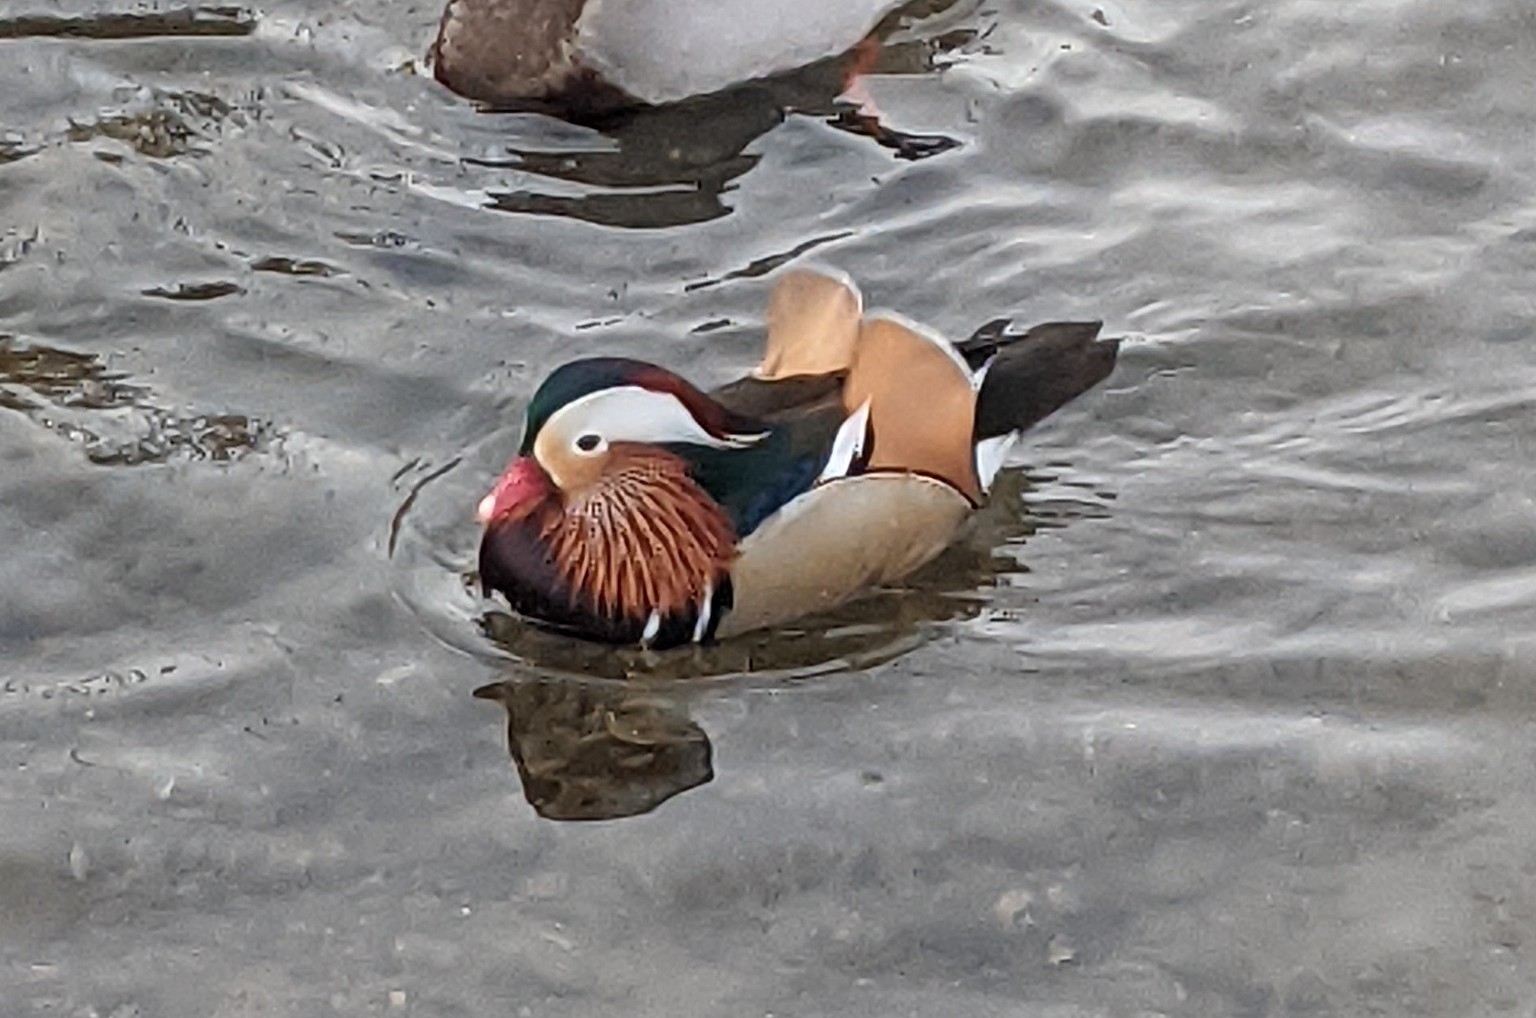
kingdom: Animalia
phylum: Chordata
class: Aves
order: Anseriformes
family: Anatidae
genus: Aix
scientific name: Aix galericulata
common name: Mandarin duck
